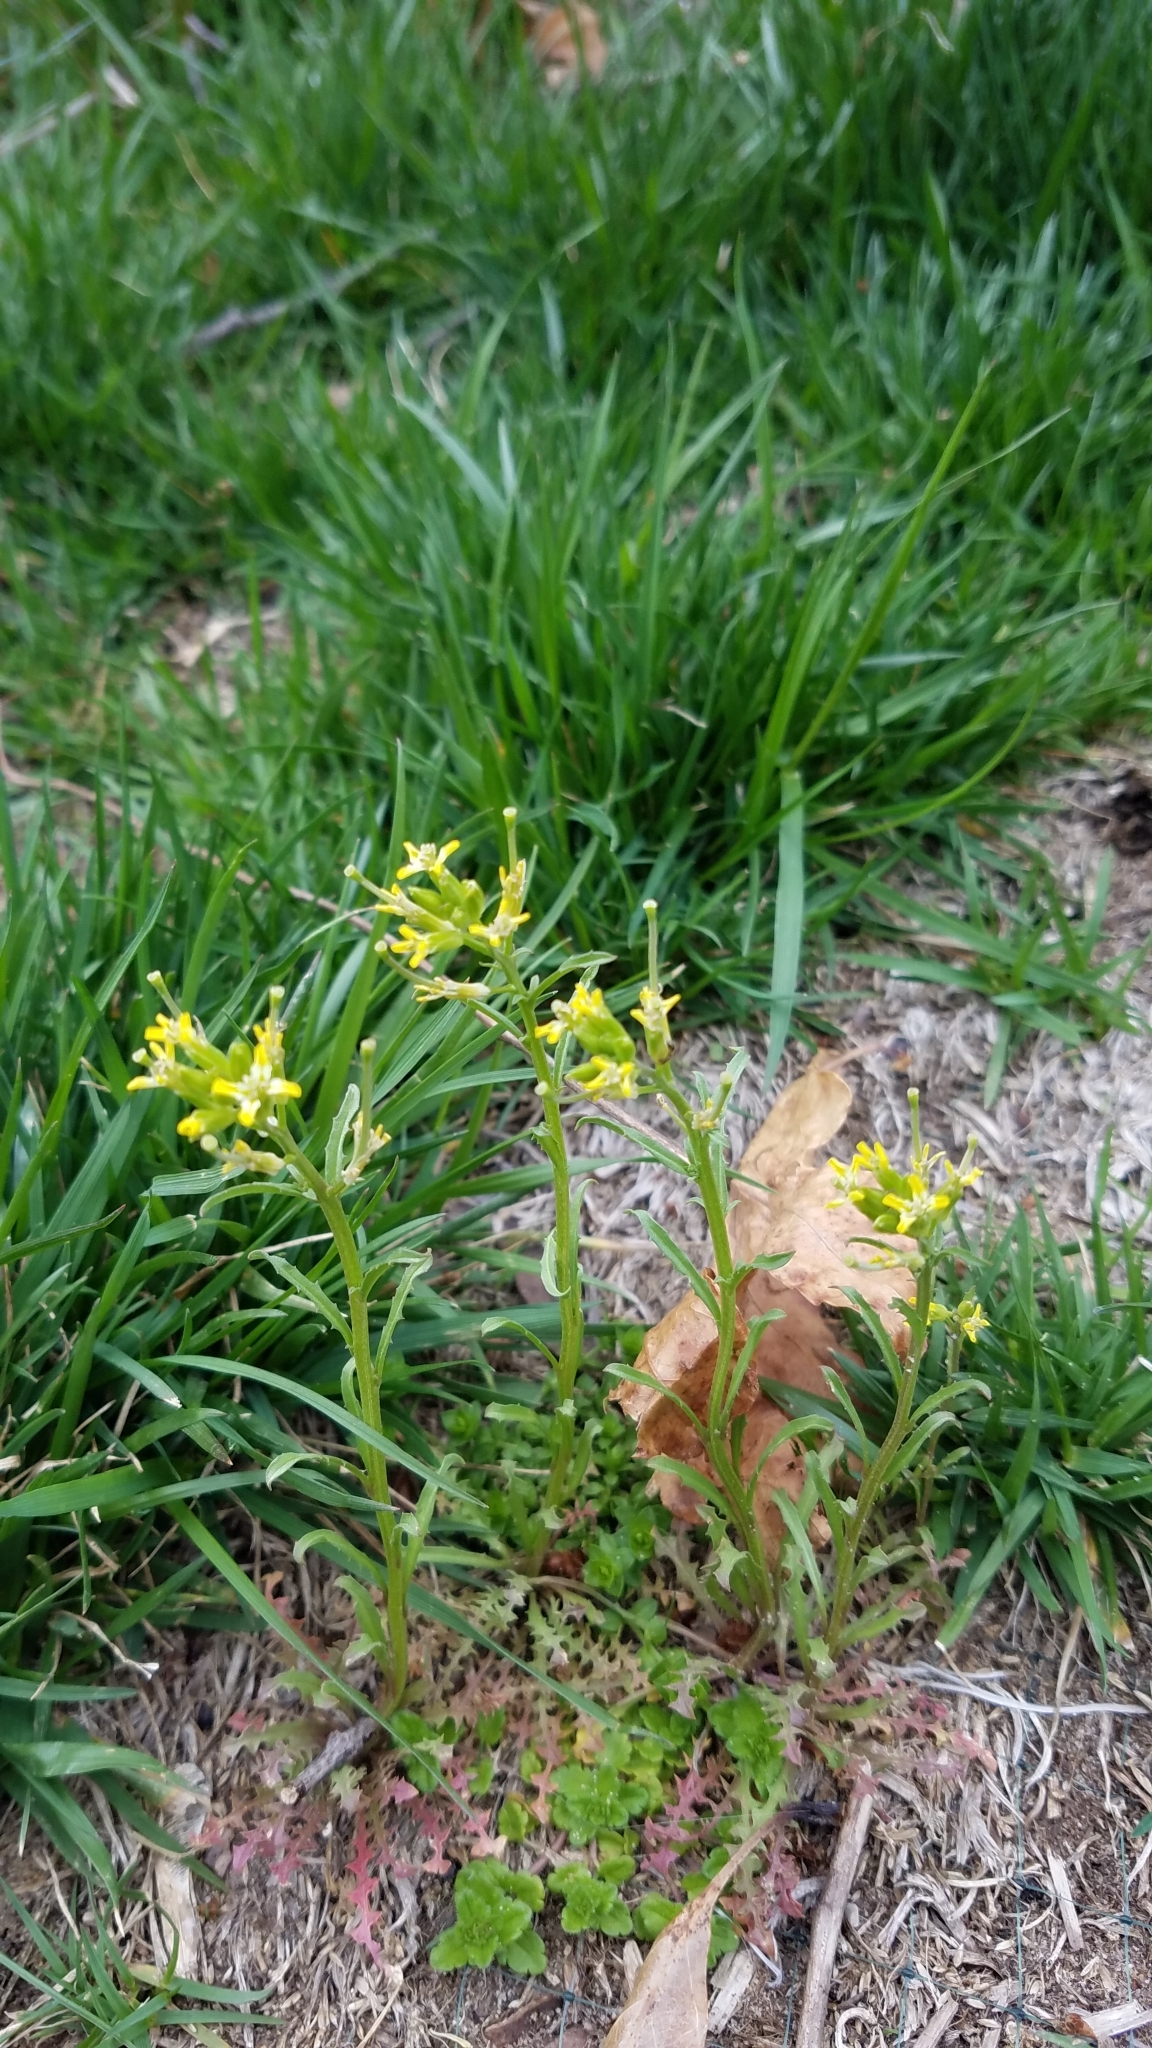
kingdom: Plantae
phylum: Tracheophyta
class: Magnoliopsida
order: Brassicales
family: Brassicaceae
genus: Barbarea
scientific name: Barbarea orthoceras
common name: American wintercress
